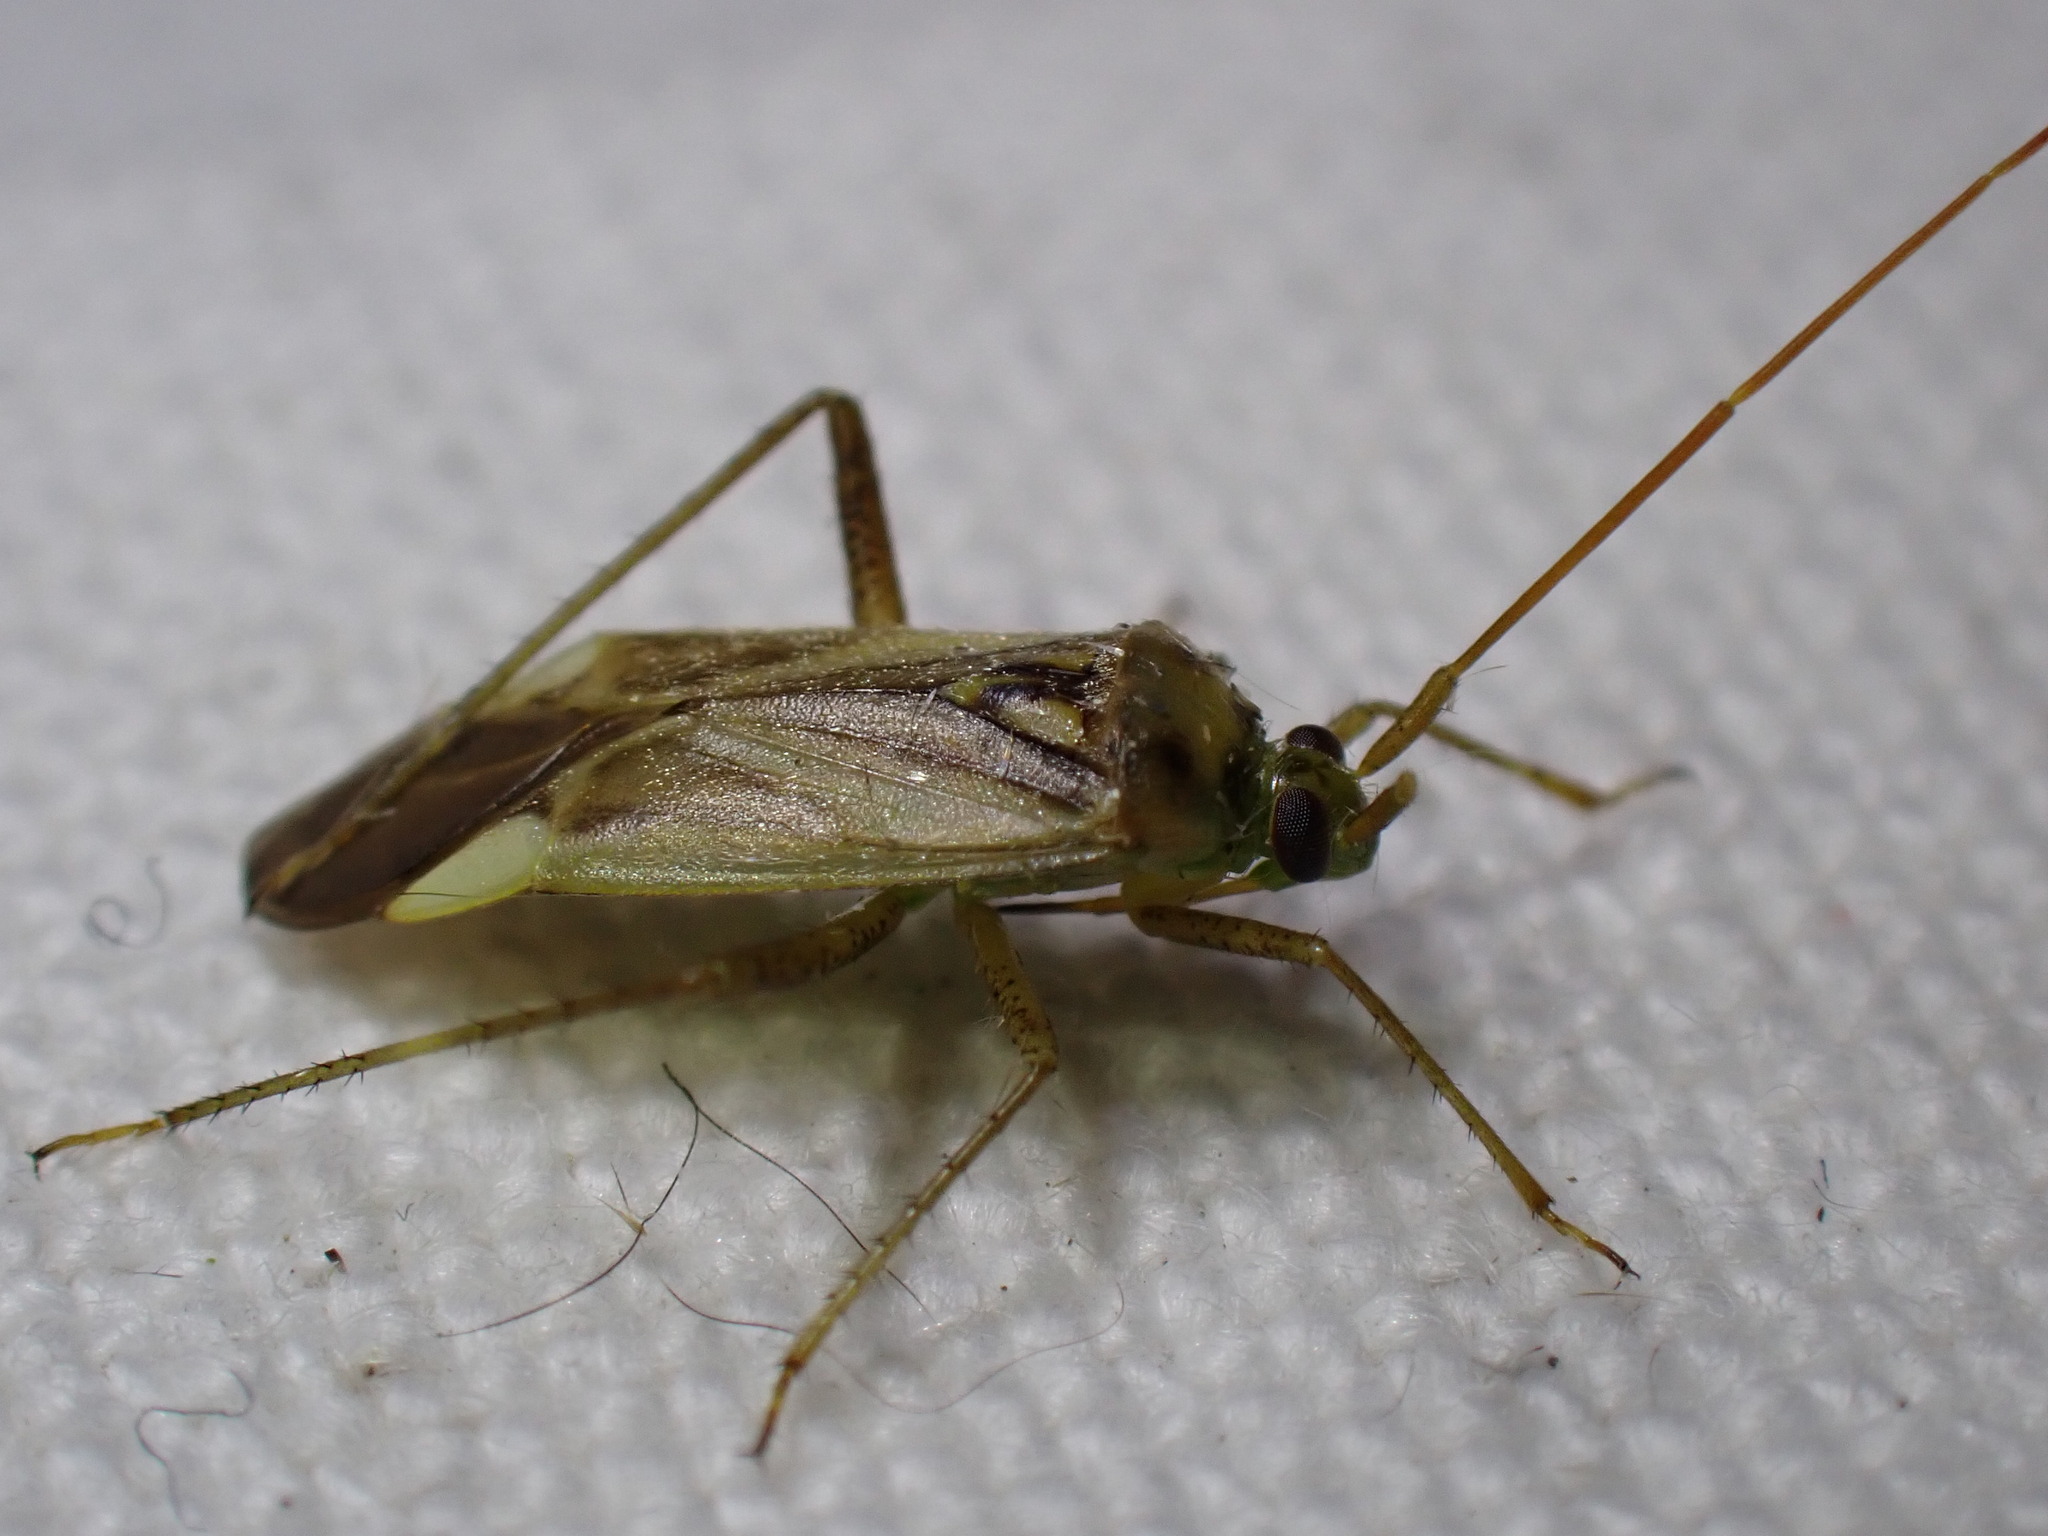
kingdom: Animalia
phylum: Arthropoda
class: Insecta
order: Hemiptera
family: Miridae
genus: Adelphocoris
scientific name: Adelphocoris lineolatus
